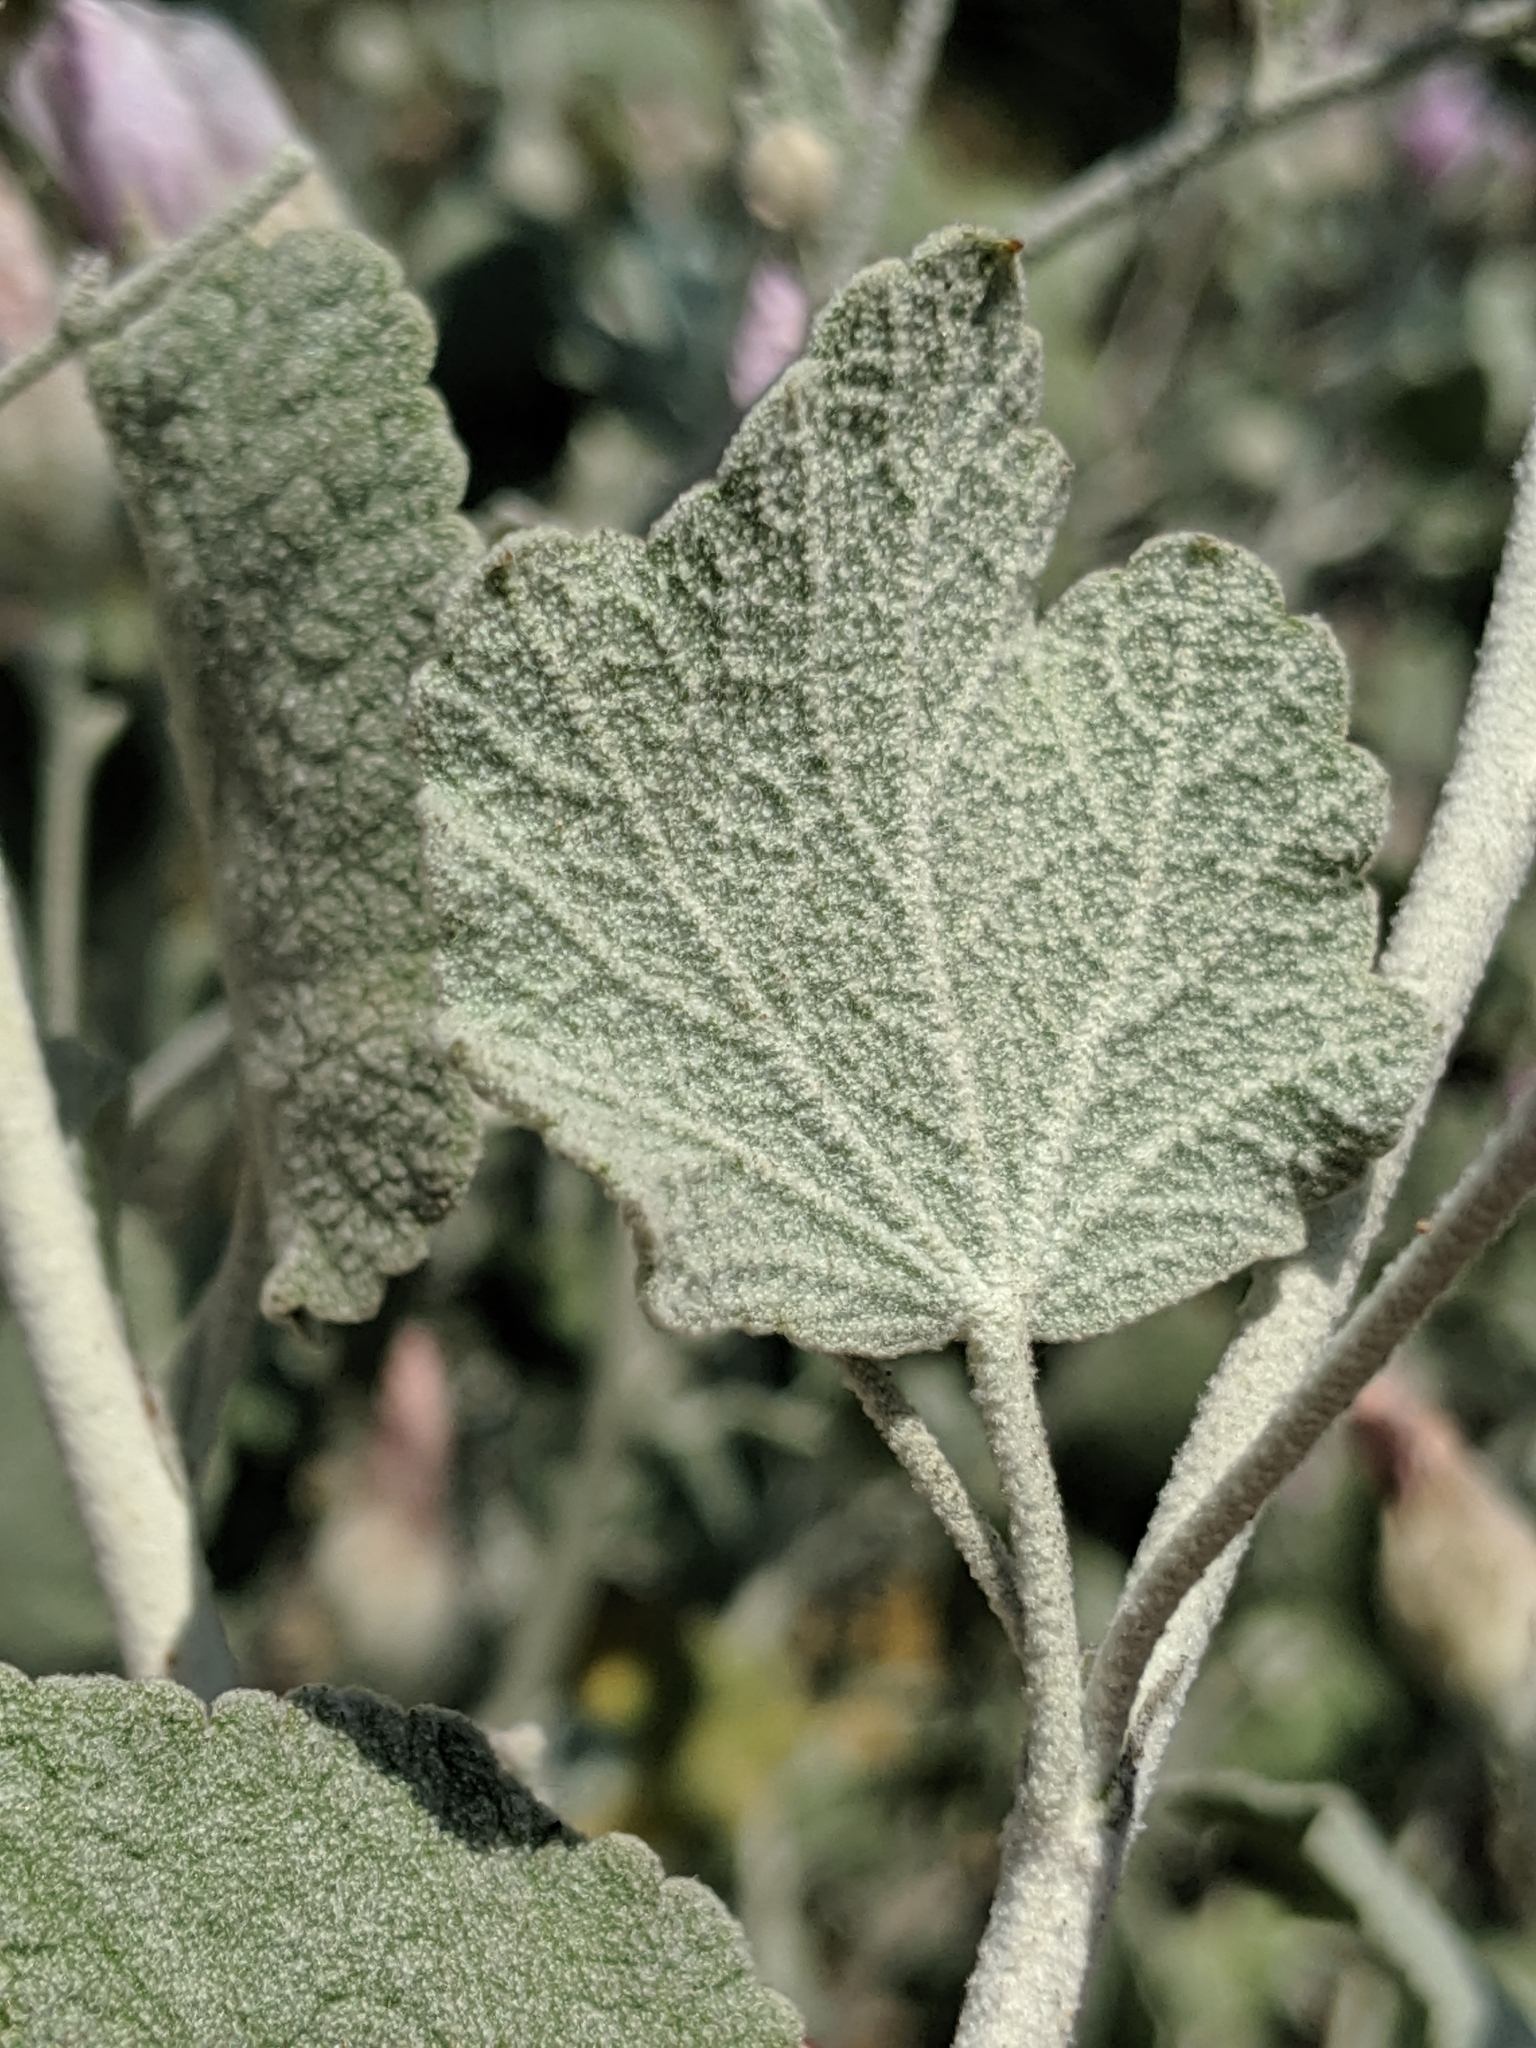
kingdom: Plantae
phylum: Tracheophyta
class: Magnoliopsida
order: Malvales
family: Malvaceae
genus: Malacothamnus
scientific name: Malacothamnus jonesii
